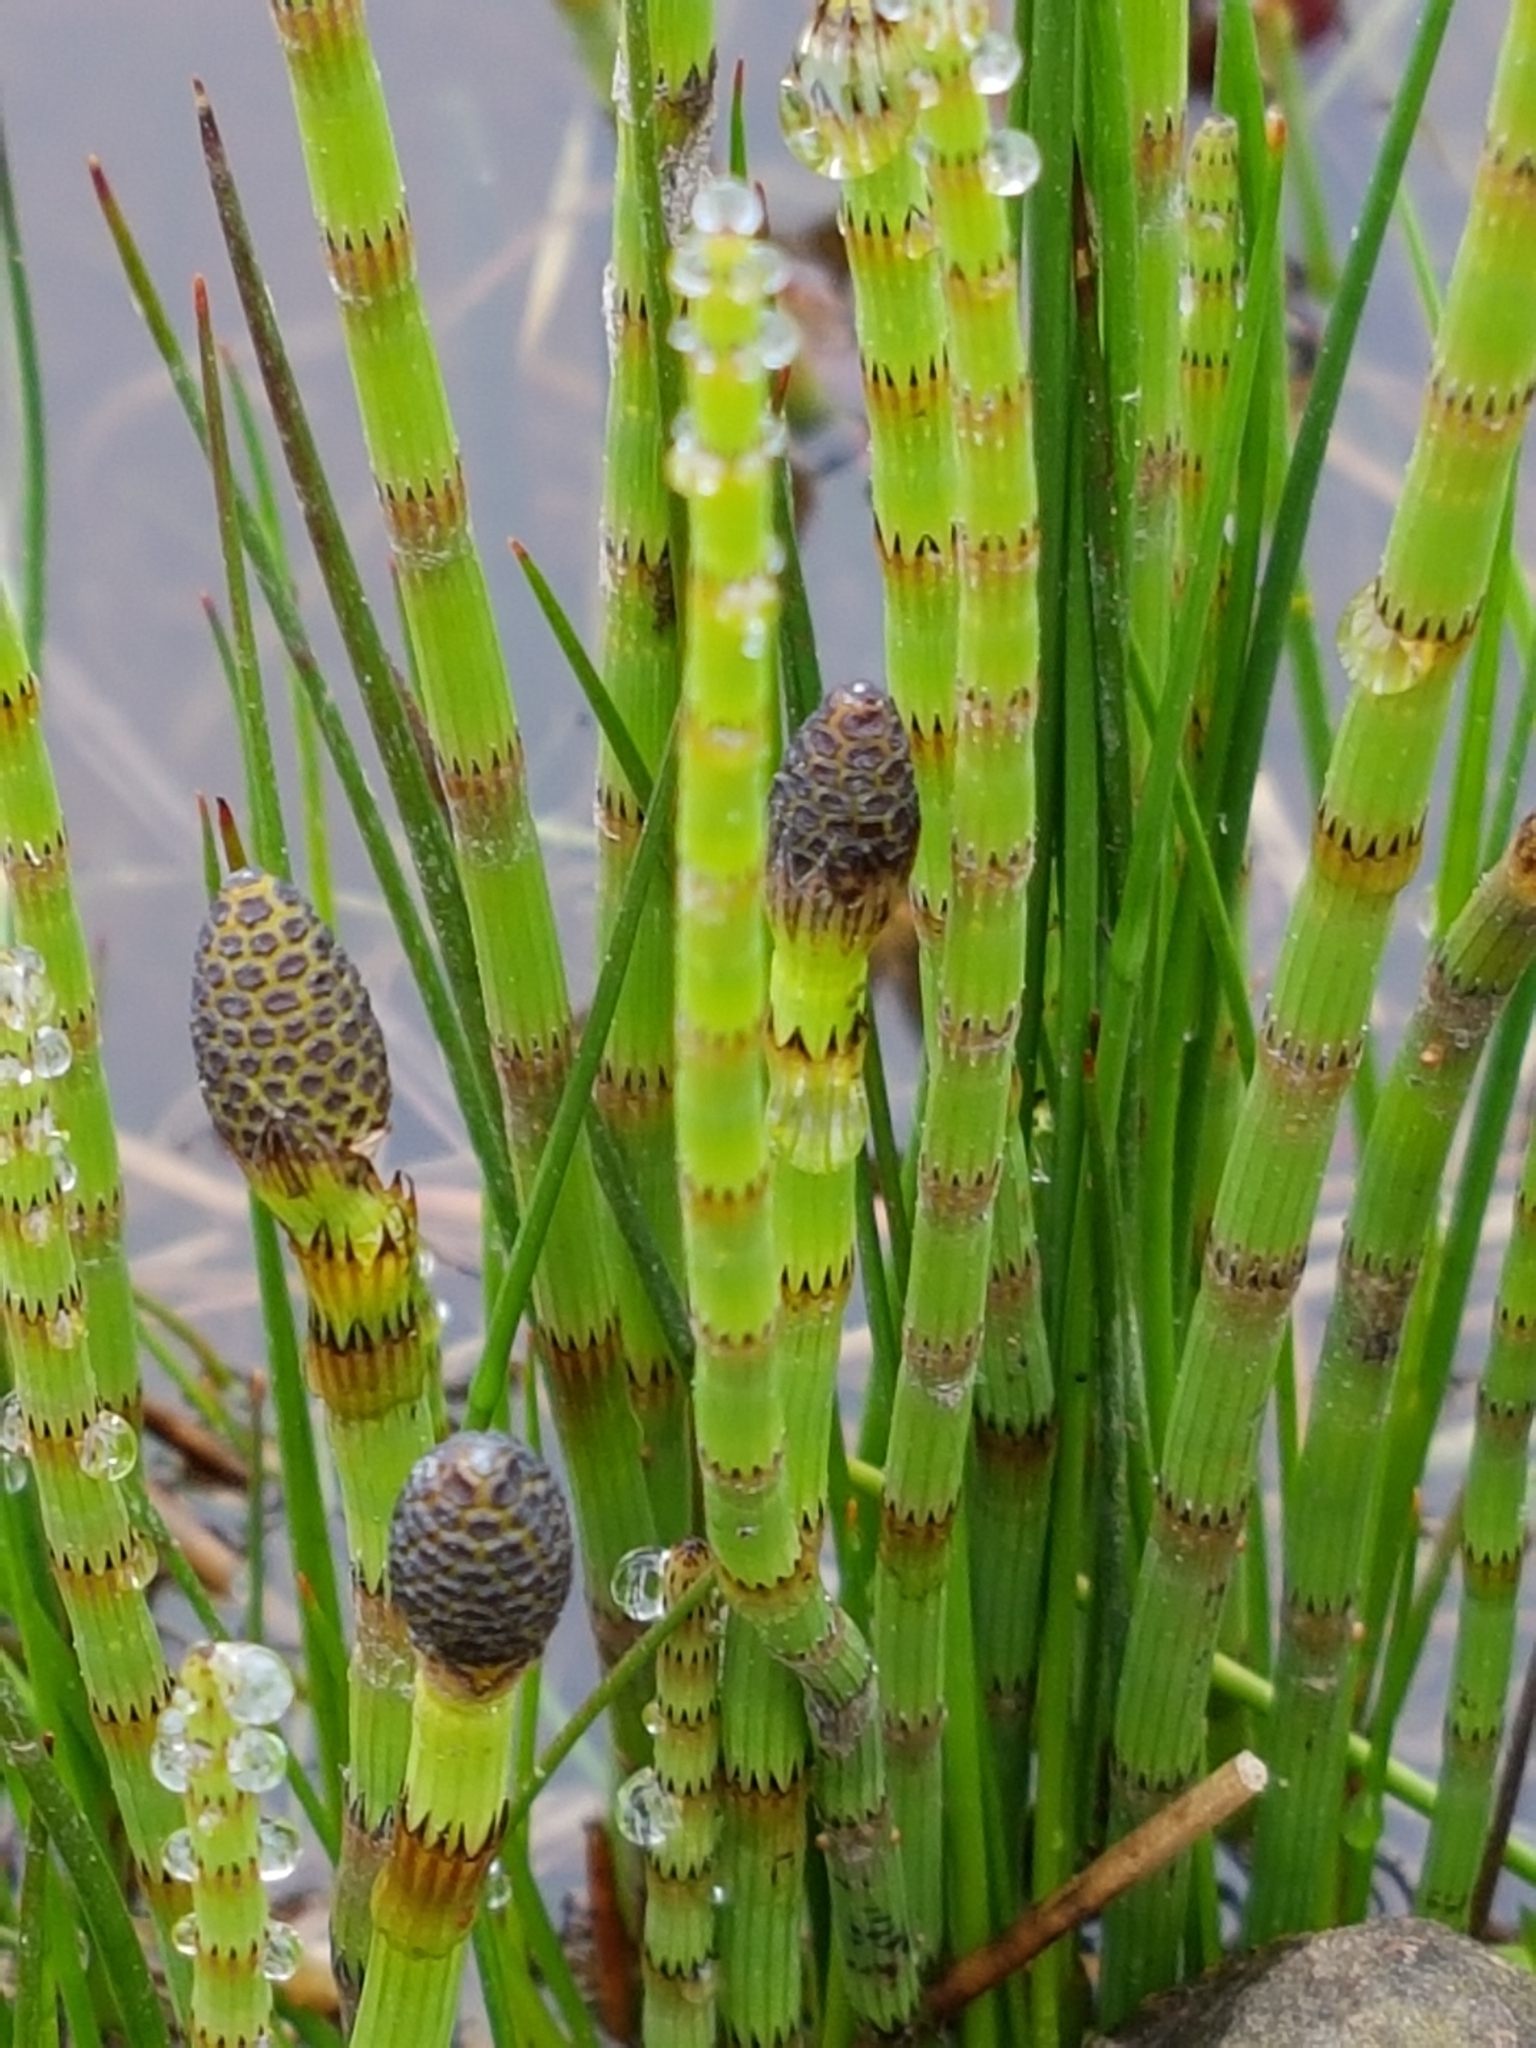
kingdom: Plantae
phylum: Tracheophyta
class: Polypodiopsida
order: Equisetales
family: Equisetaceae
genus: Equisetum
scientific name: Equisetum fluviatile
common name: Water horsetail
